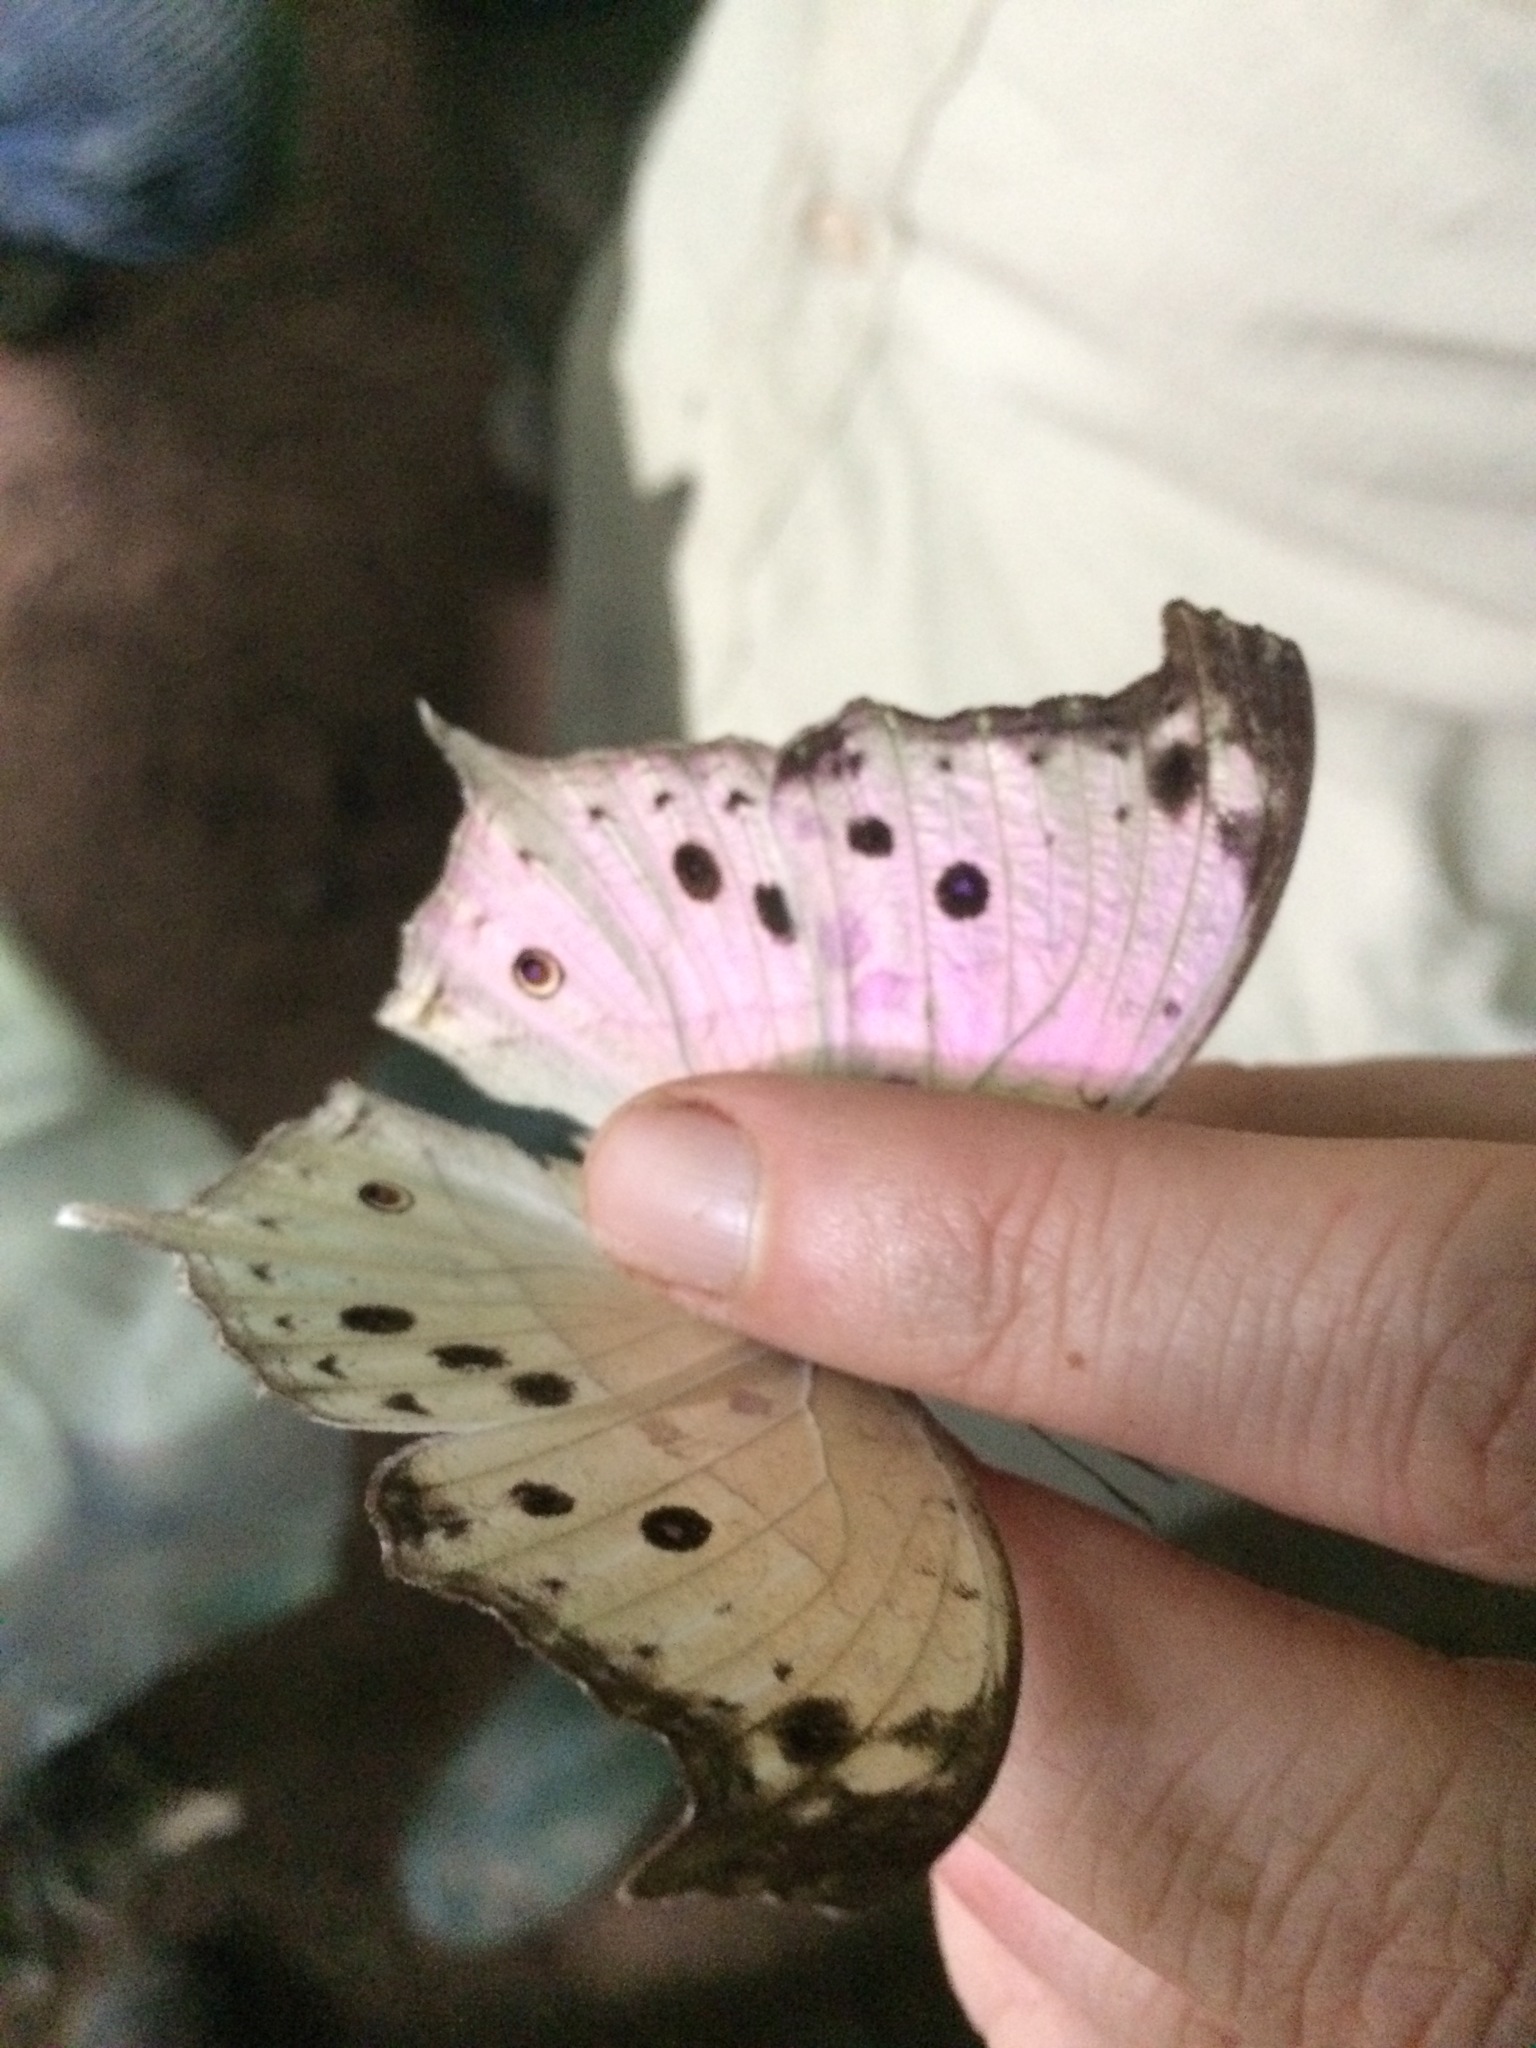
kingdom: Animalia
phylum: Arthropoda
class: Insecta
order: Lepidoptera
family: Nymphalidae
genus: Salamis
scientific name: Salamis Protogoniomorpha parhassus
